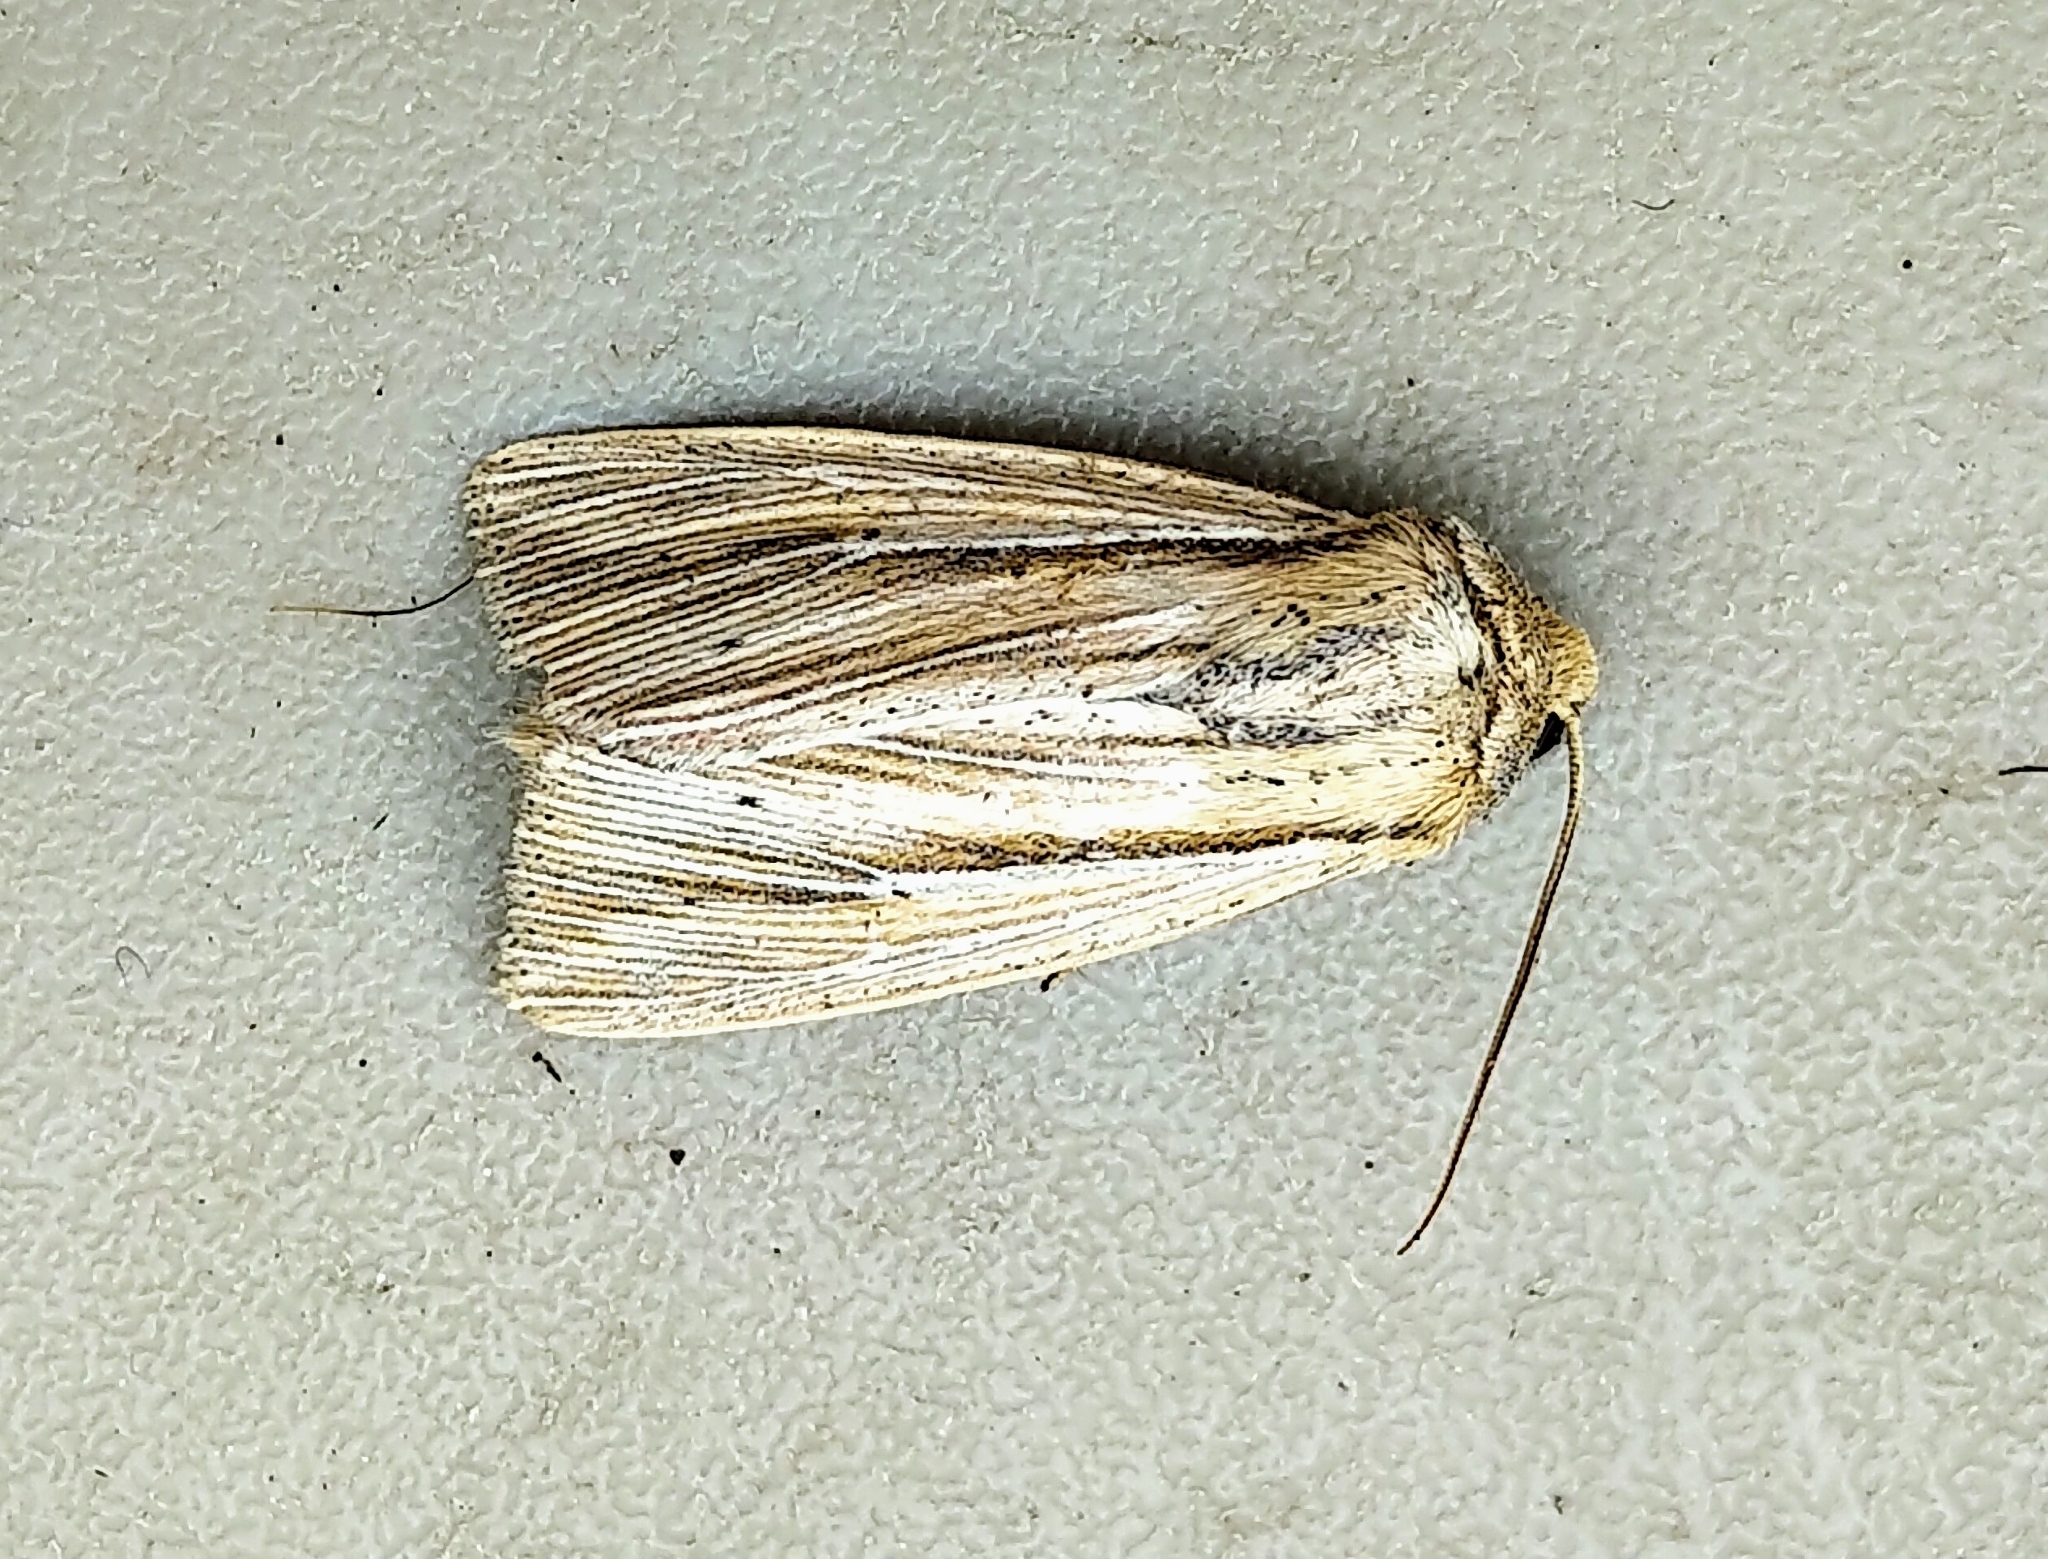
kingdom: Animalia
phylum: Arthropoda
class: Insecta
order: Lepidoptera
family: Noctuidae
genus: Leucania
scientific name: Leucania commoides
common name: Two-lined wainscot
